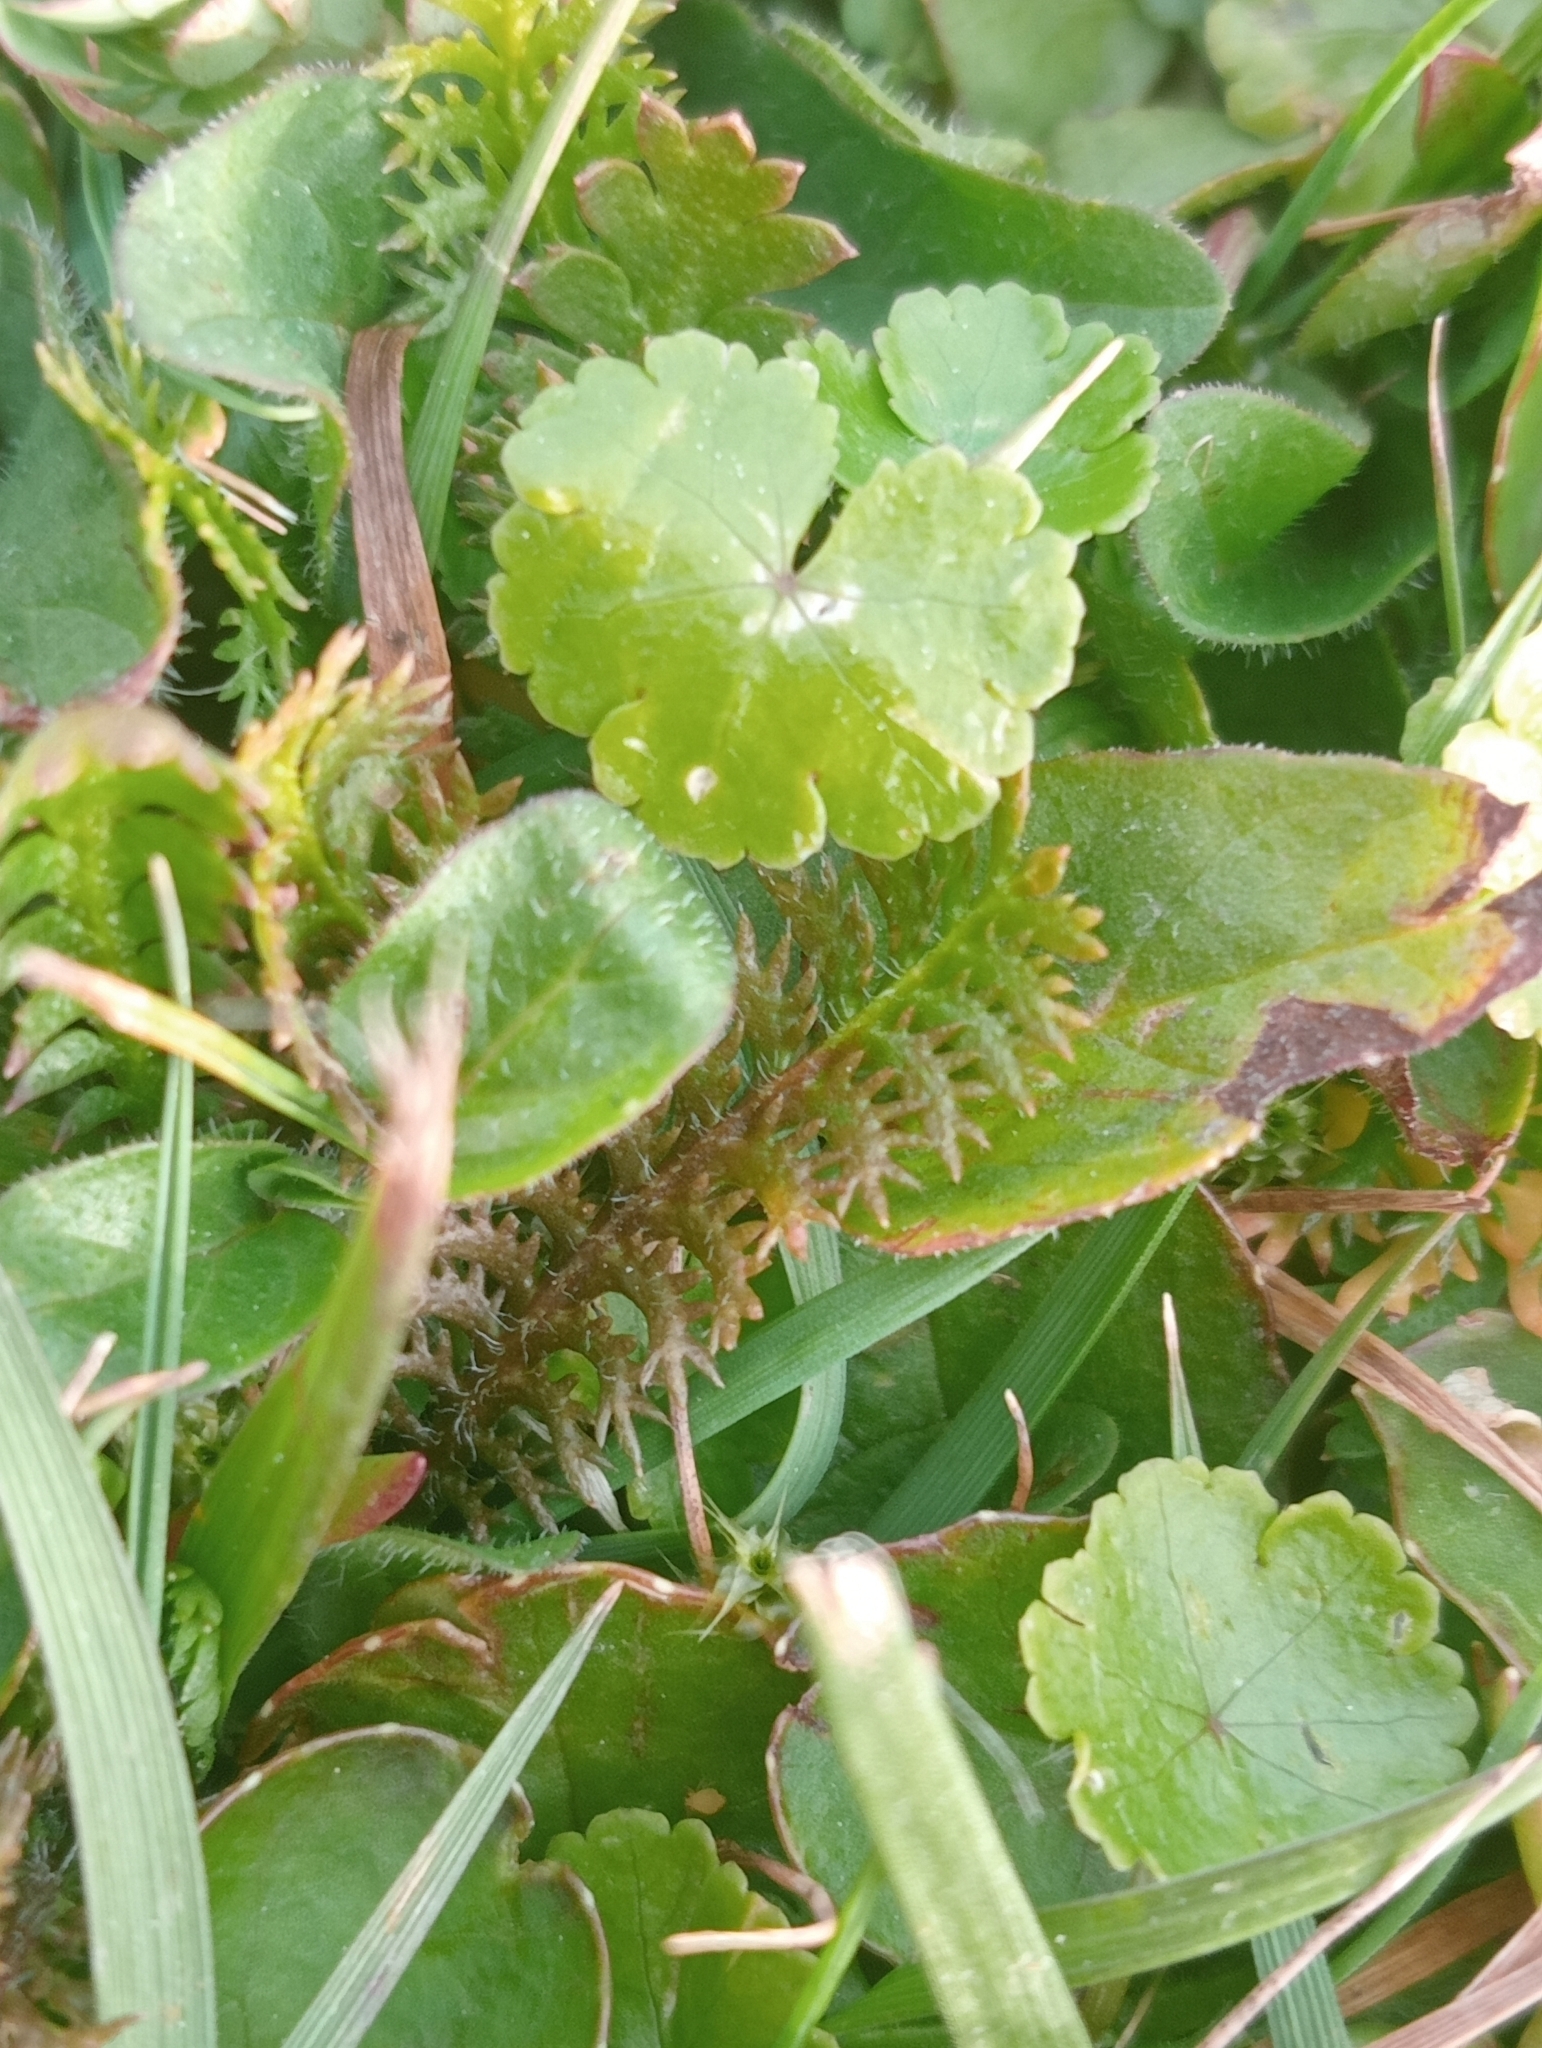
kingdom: Plantae
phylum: Tracheophyta
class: Magnoliopsida
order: Apiales
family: Araliaceae
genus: Hydrocotyle
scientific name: Hydrocotyle microphylla
